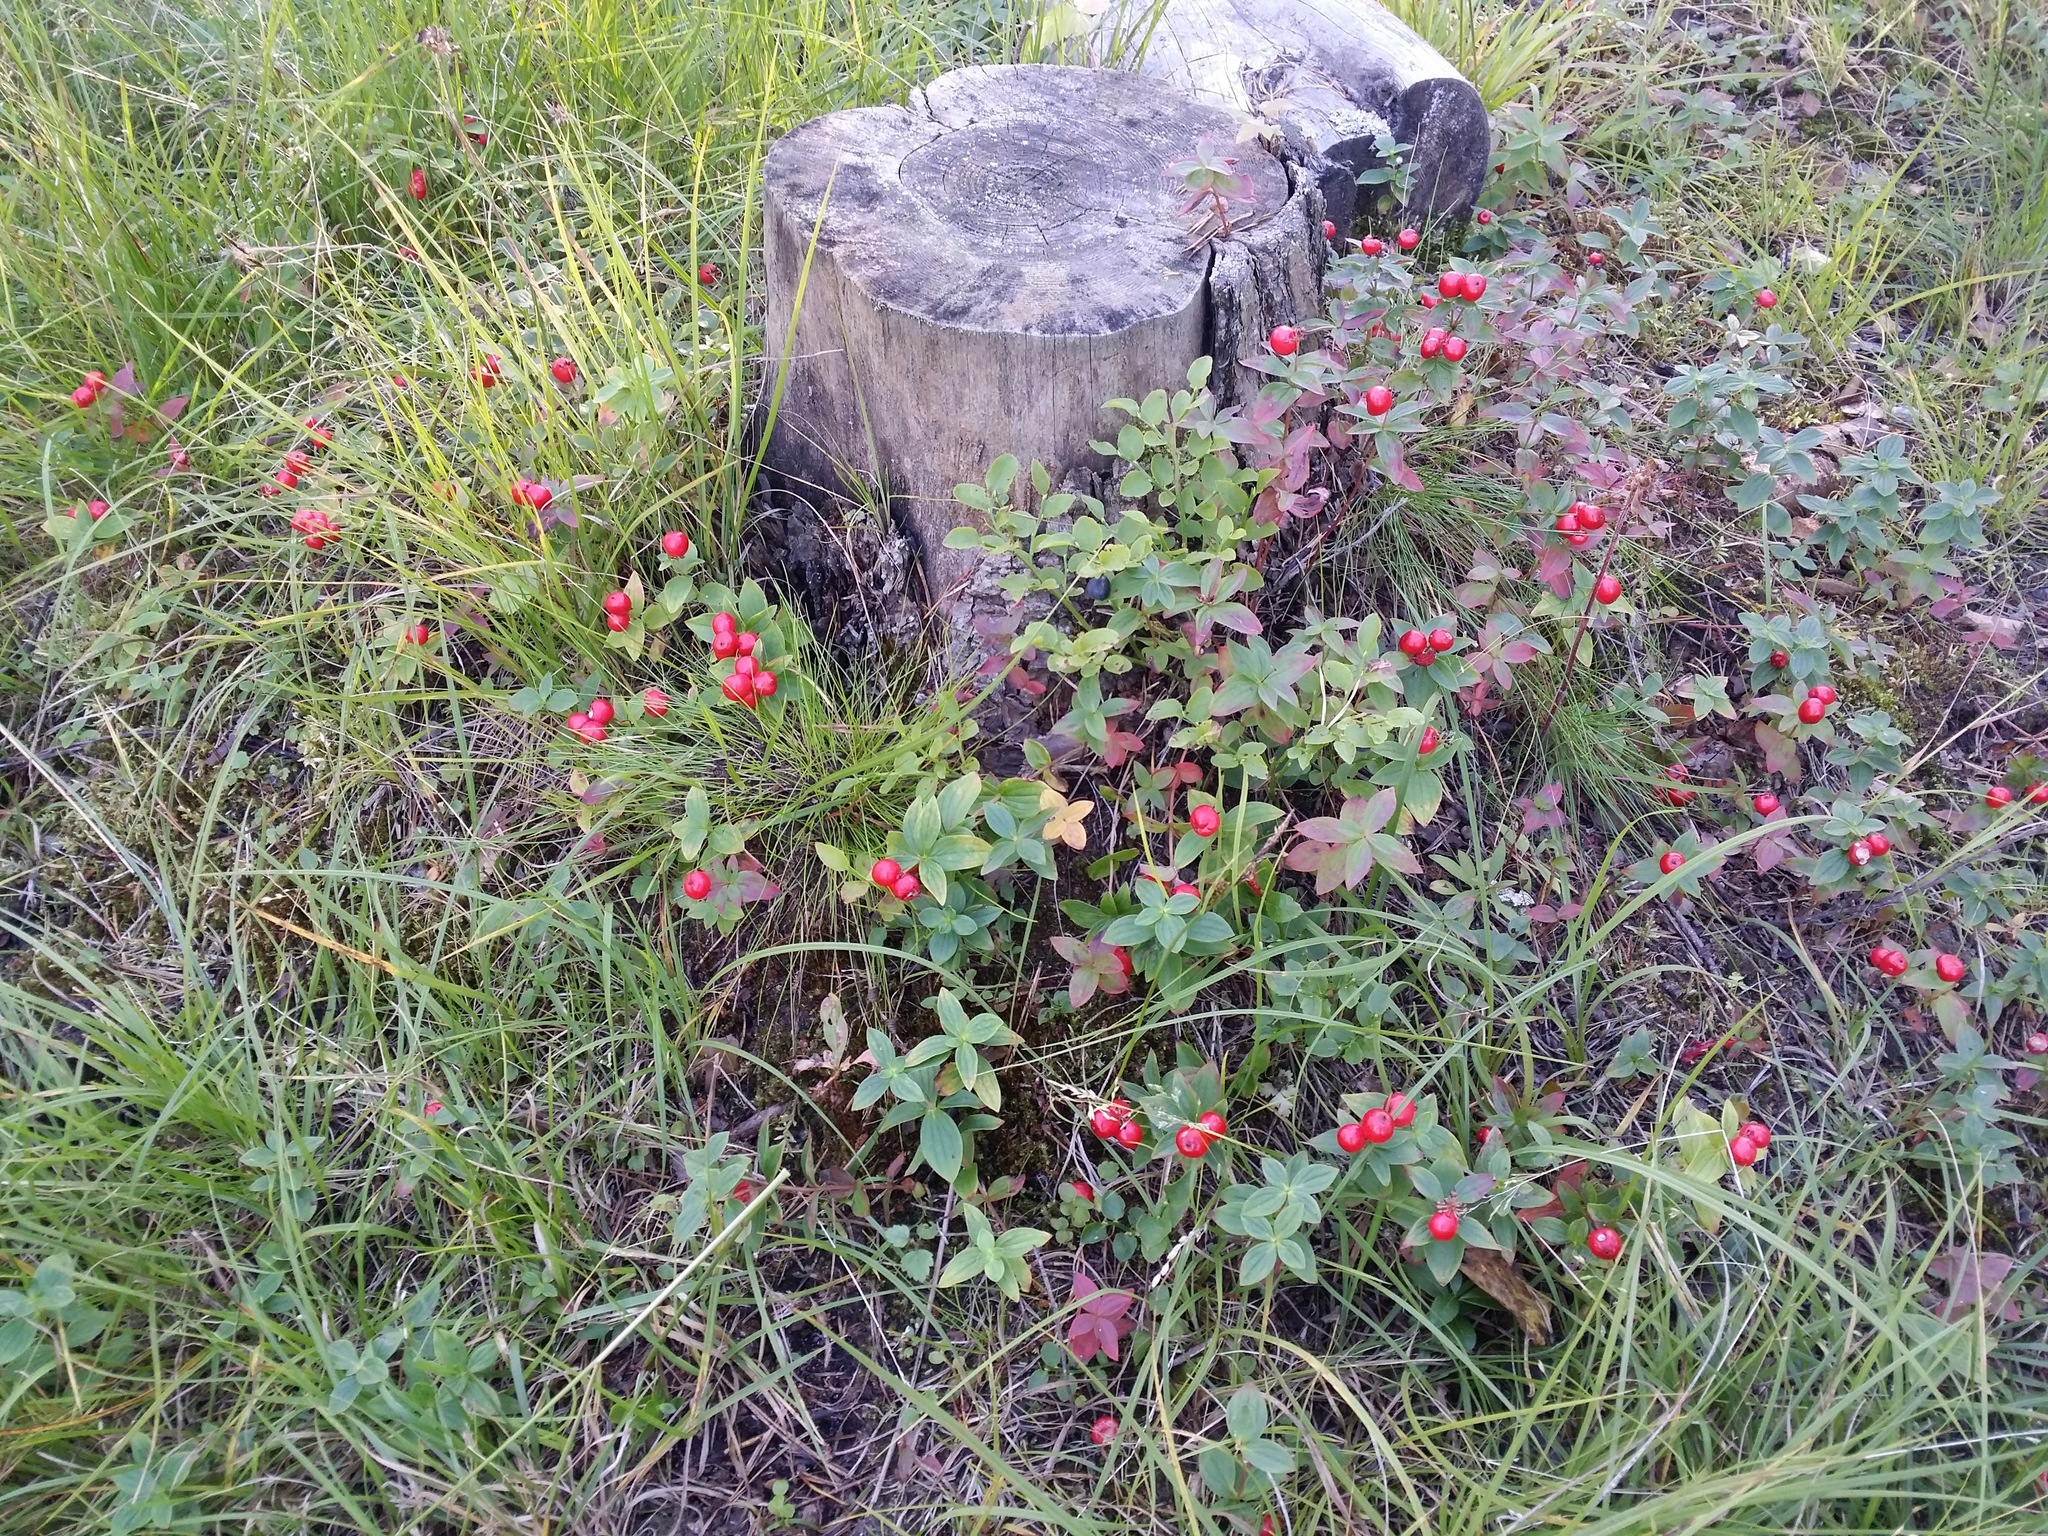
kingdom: Plantae
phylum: Tracheophyta
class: Magnoliopsida
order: Cornales
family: Cornaceae
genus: Cornus
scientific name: Cornus suecica
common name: Dwarf cornel
